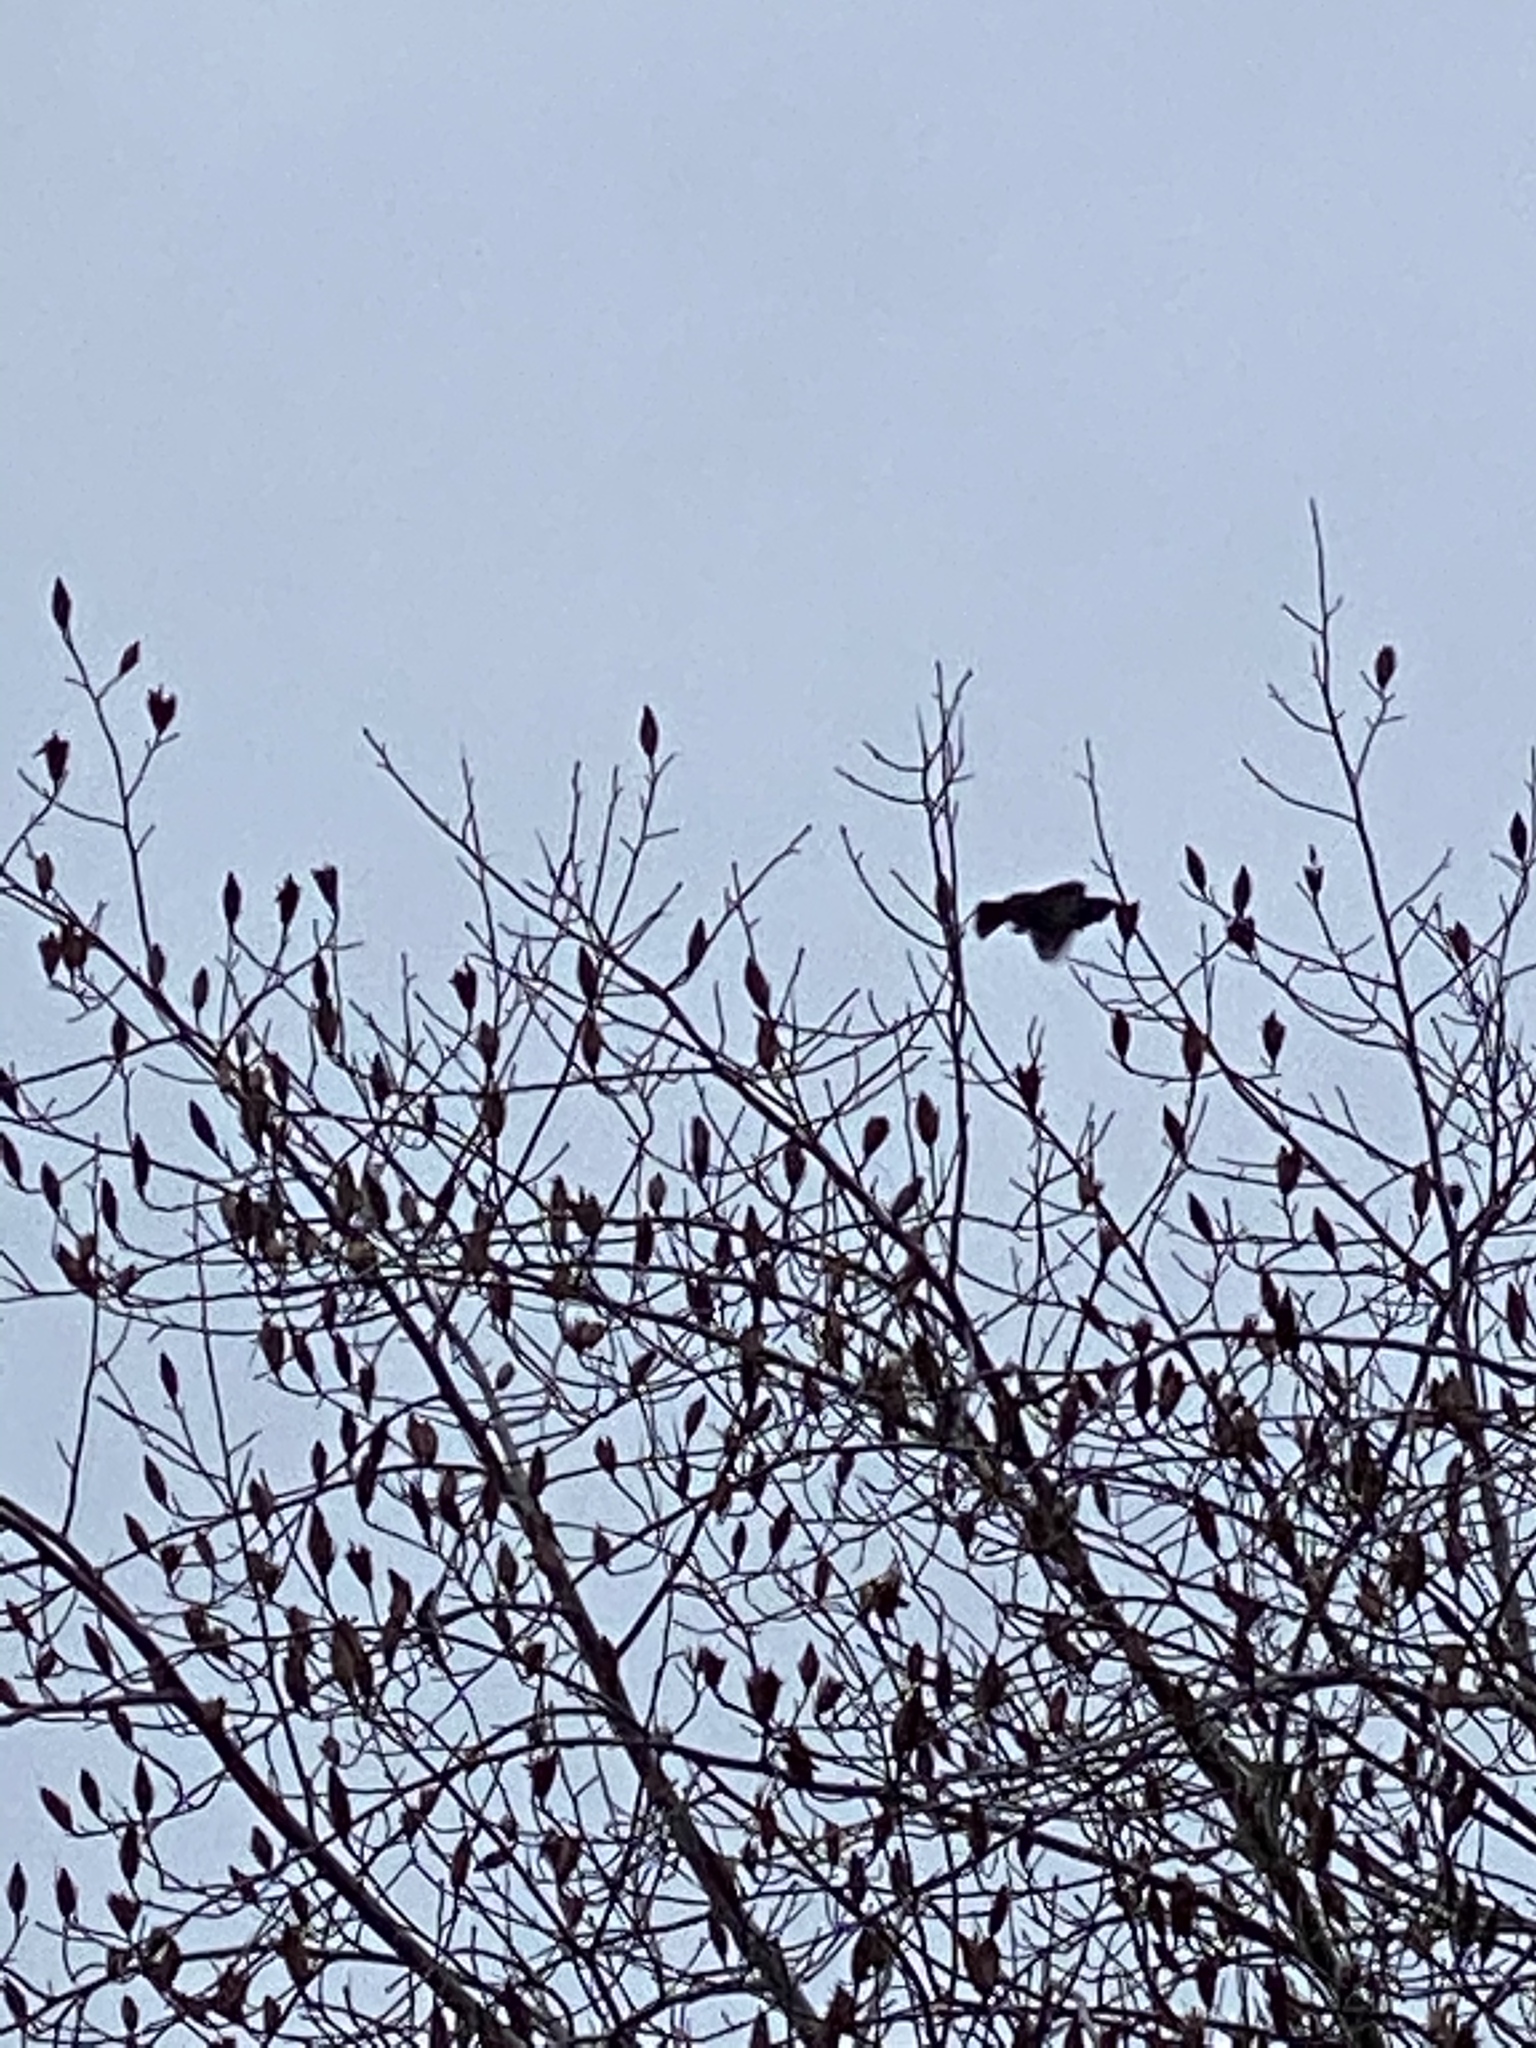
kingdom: Animalia
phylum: Chordata
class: Aves
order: Passeriformes
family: Sturnidae
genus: Sturnus
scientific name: Sturnus vulgaris
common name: Common starling
